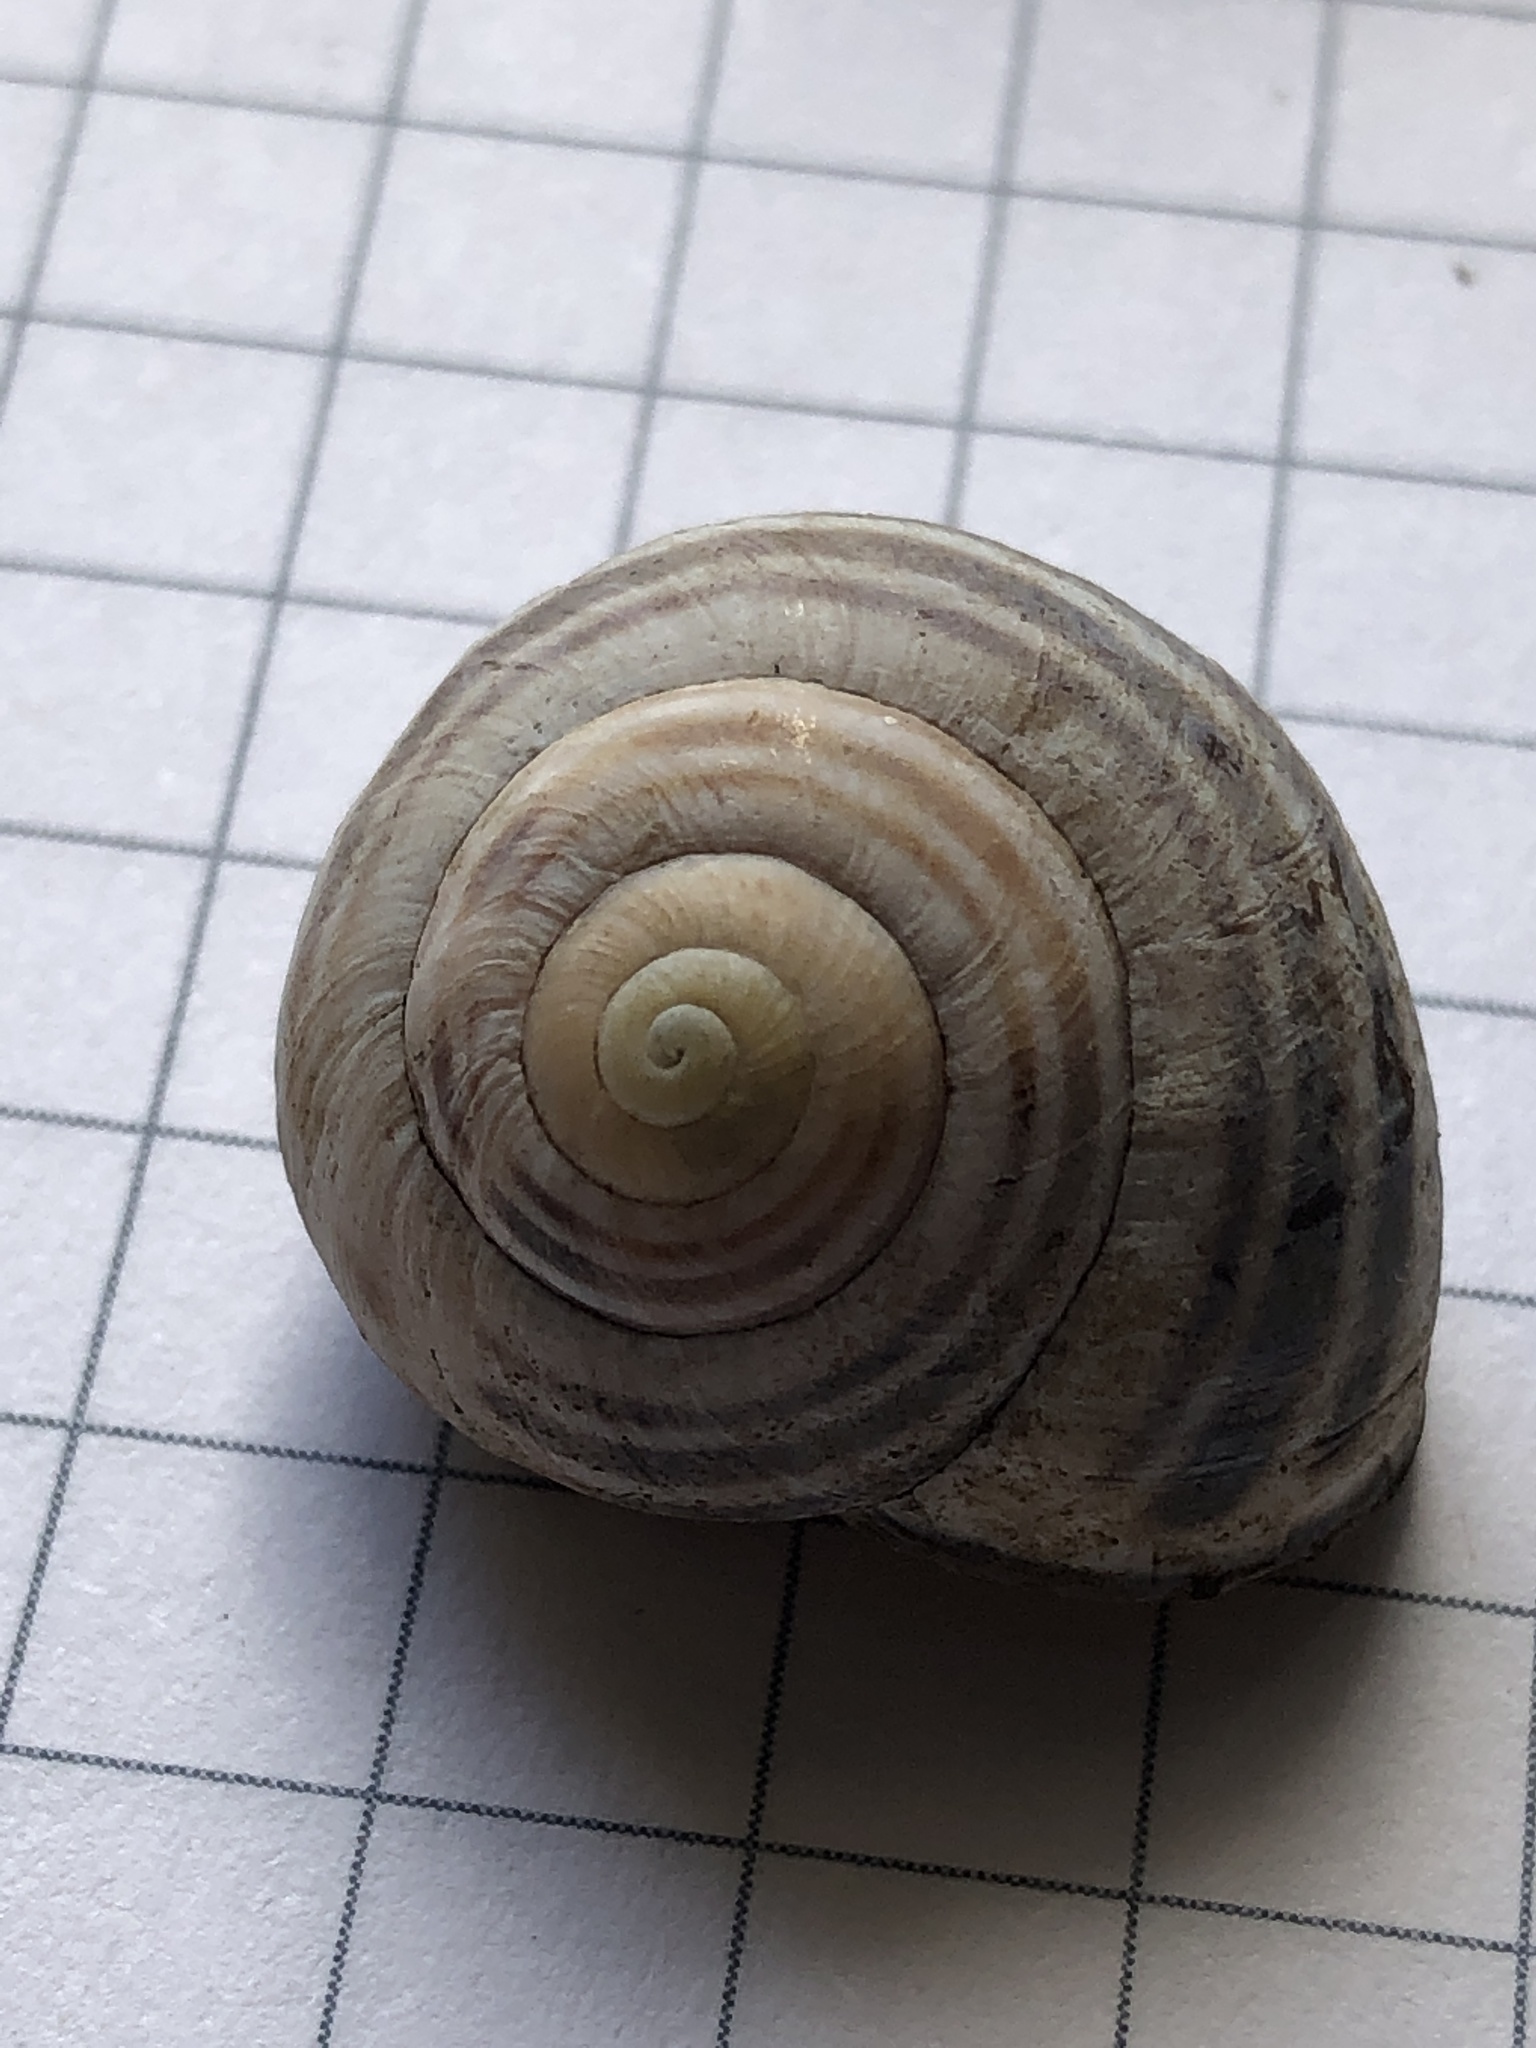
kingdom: Animalia
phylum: Mollusca
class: Gastropoda
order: Stylommatophora
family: Helicidae
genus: Cepaea
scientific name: Cepaea nemoralis
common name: Grovesnail
